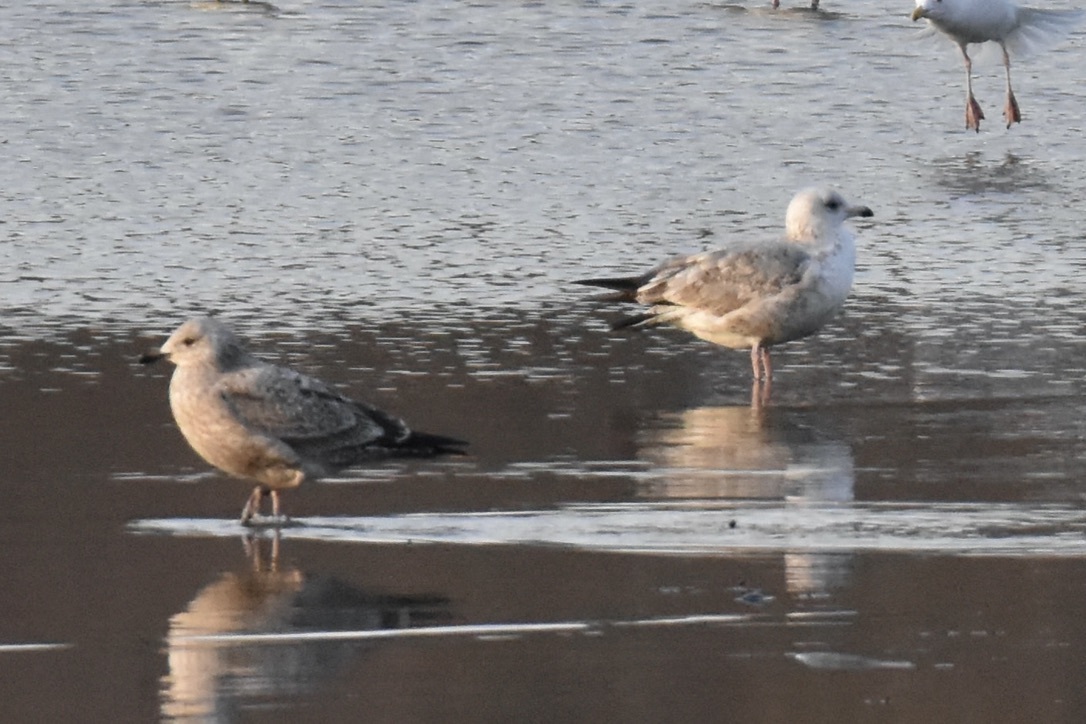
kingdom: Animalia
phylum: Chordata
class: Aves
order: Charadriiformes
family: Laridae
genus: Larus
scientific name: Larus argentatus
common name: Herring gull
